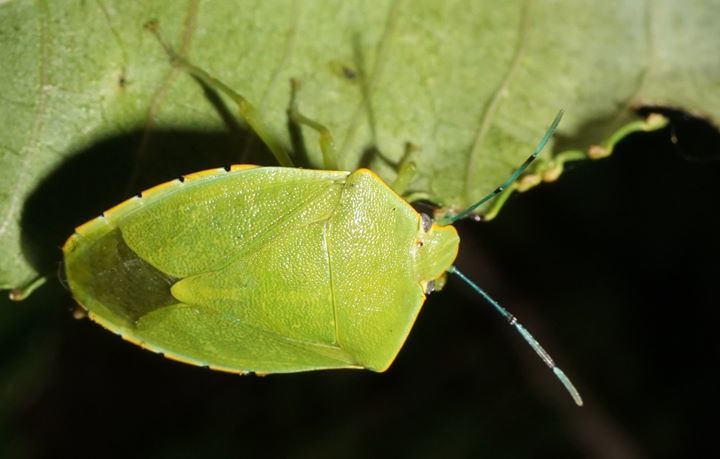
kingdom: Animalia
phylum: Arthropoda
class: Insecta
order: Hemiptera
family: Pentatomidae
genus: Acrosternum
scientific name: Acrosternum marginatum
